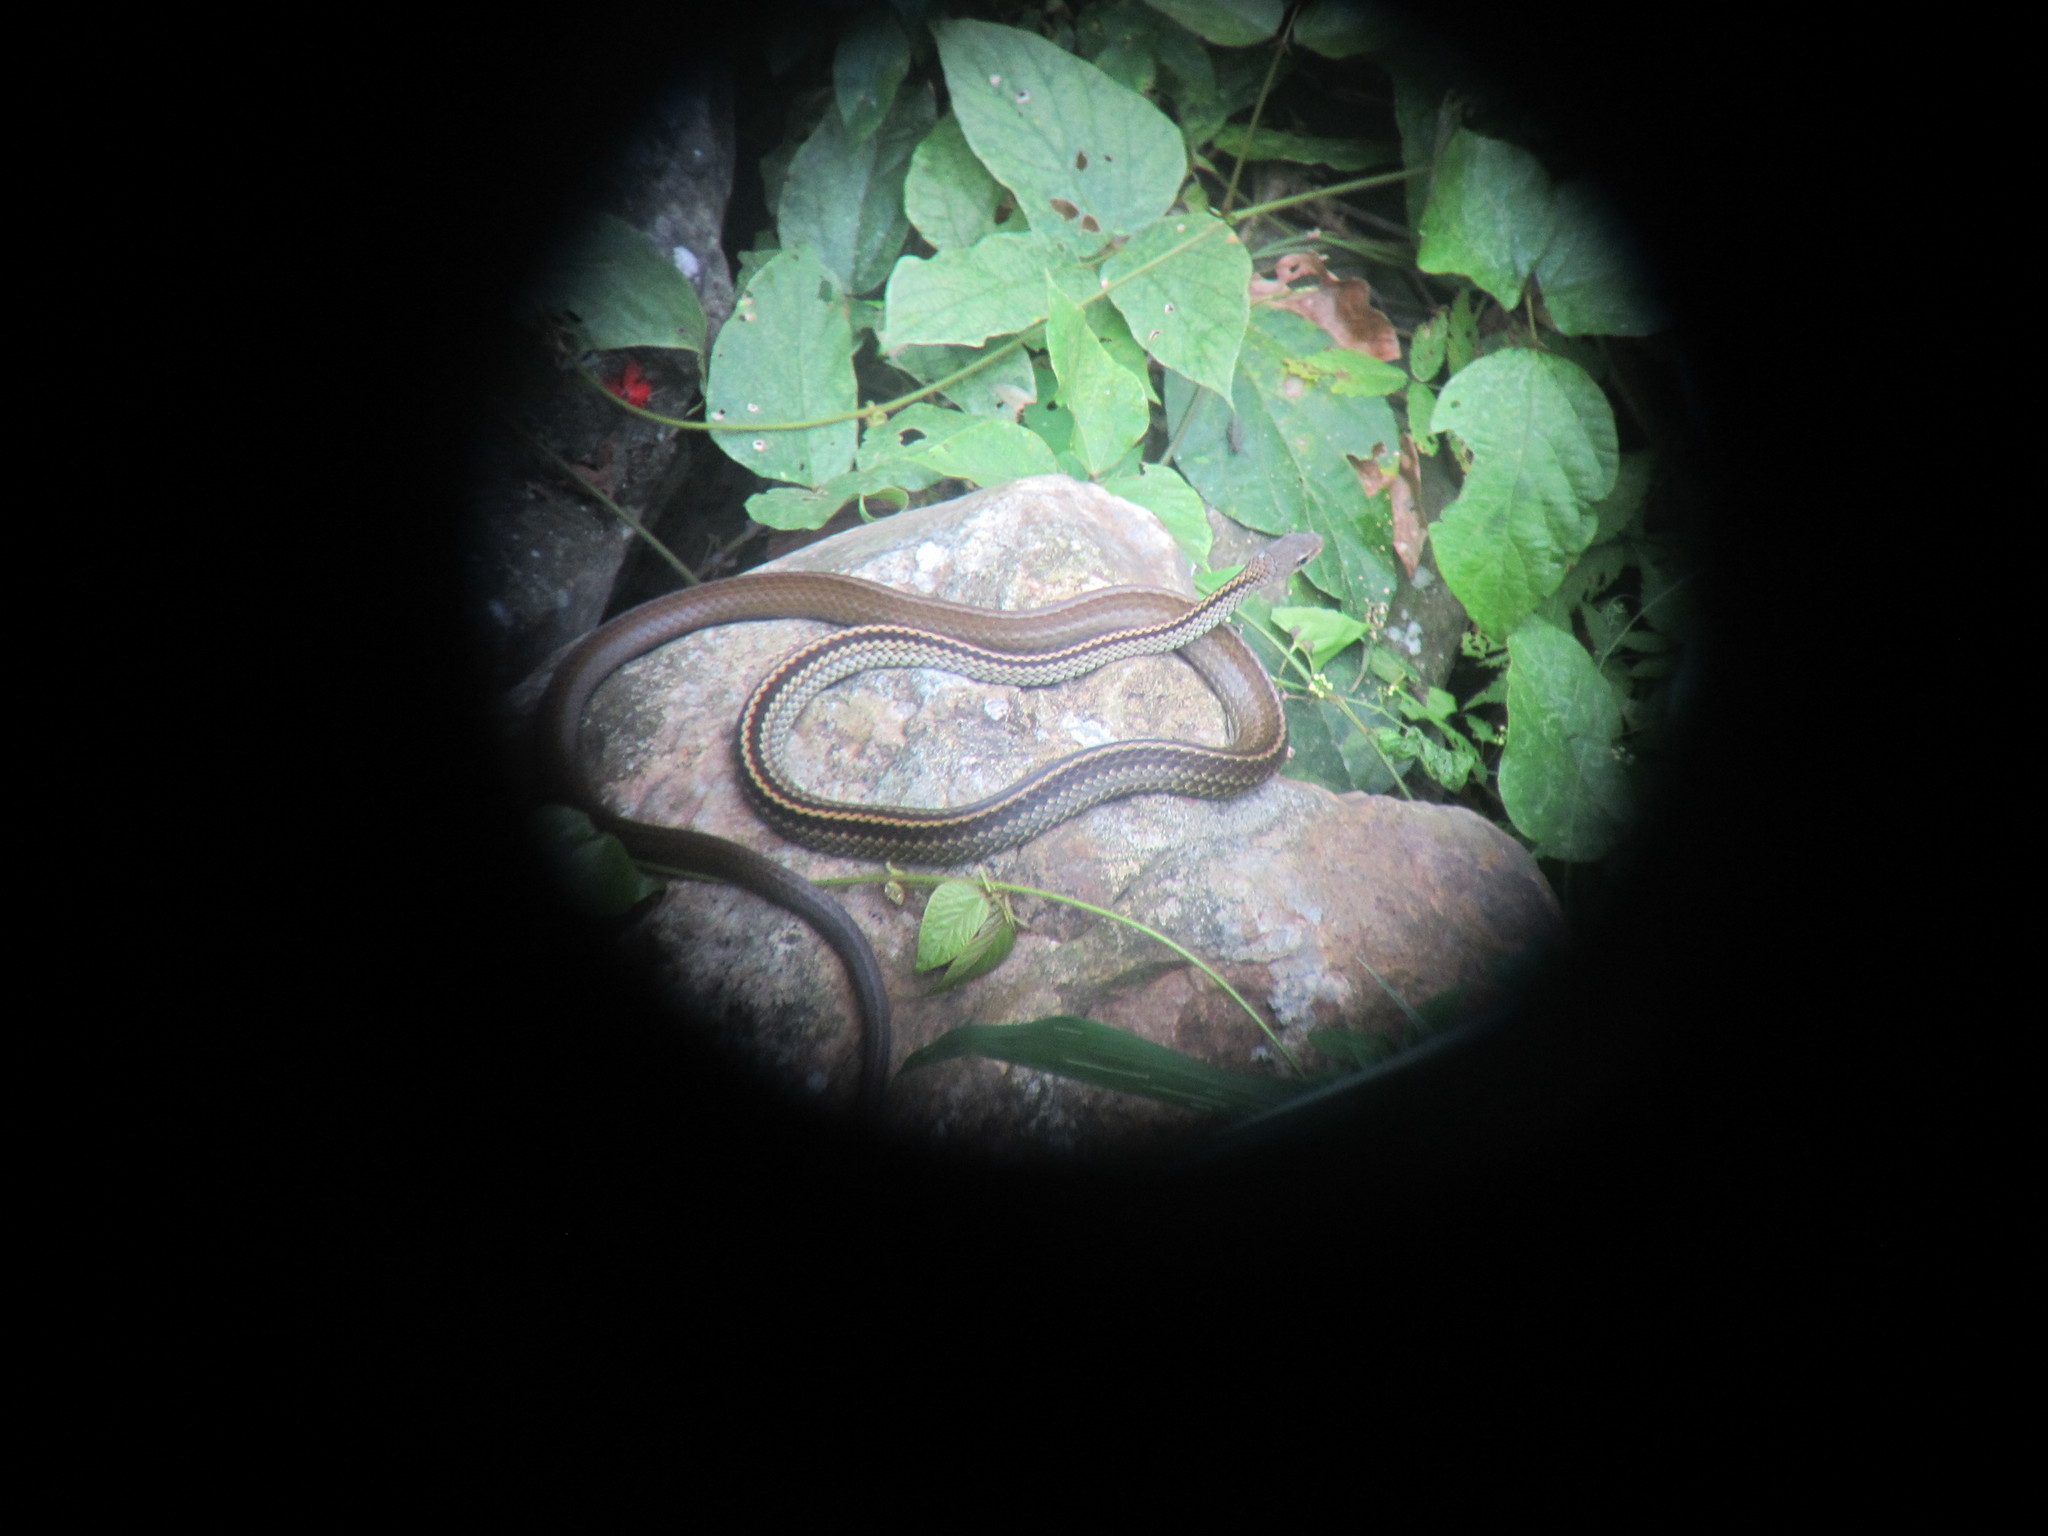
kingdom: Animalia
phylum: Chordata
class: Squamata
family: Colubridae
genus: Ptyas
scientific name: Ptyas dhumnades
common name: Black-striped rat snake
